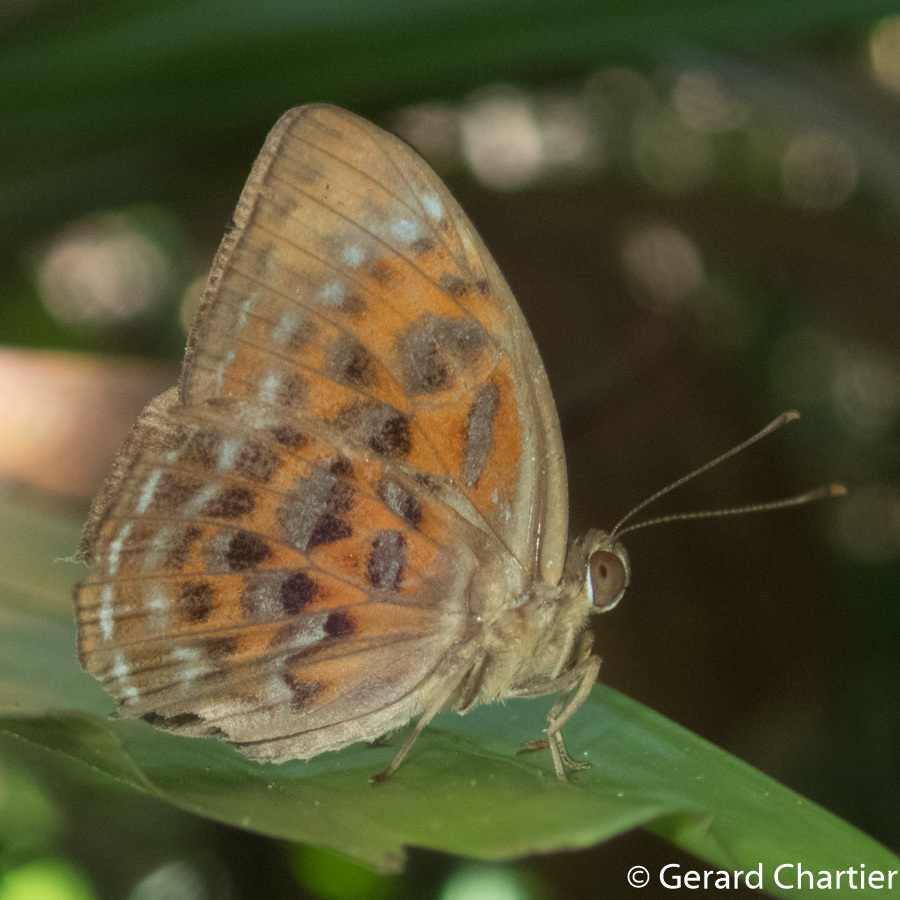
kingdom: Animalia
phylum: Arthropoda
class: Insecta
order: Lepidoptera
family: Erebidae
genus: Dysschema
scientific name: Dysschema
